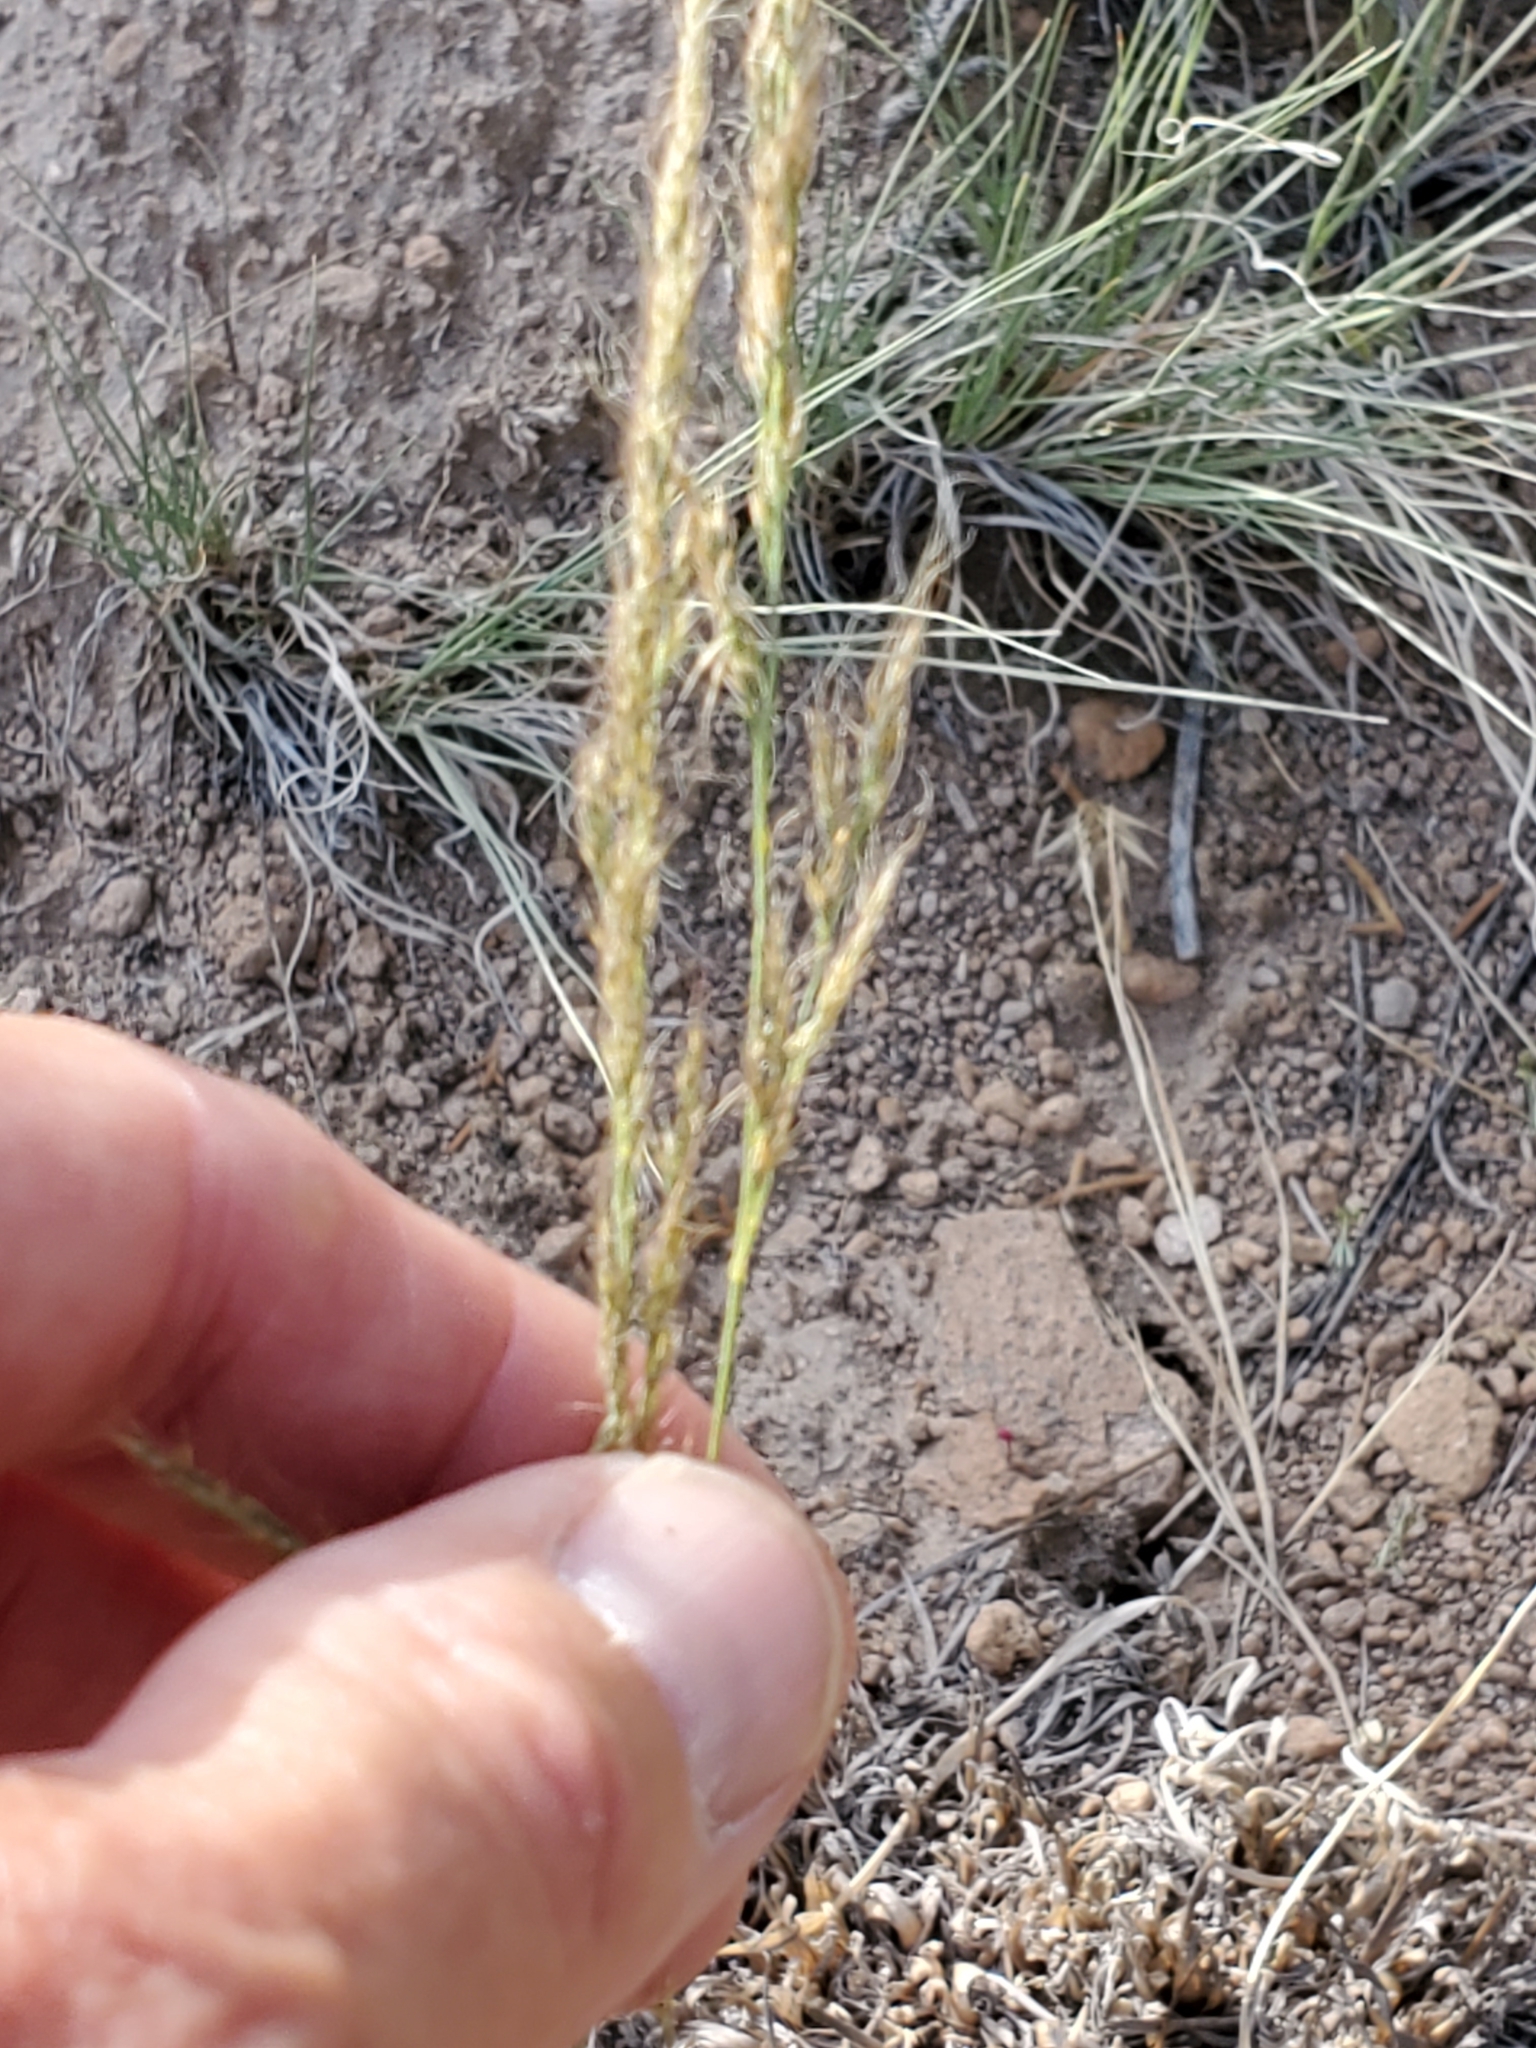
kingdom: Plantae
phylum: Tracheophyta
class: Liliopsida
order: Poales
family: Poaceae
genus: Muhlenbergia
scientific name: Muhlenbergia montana
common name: Mountain muhly
